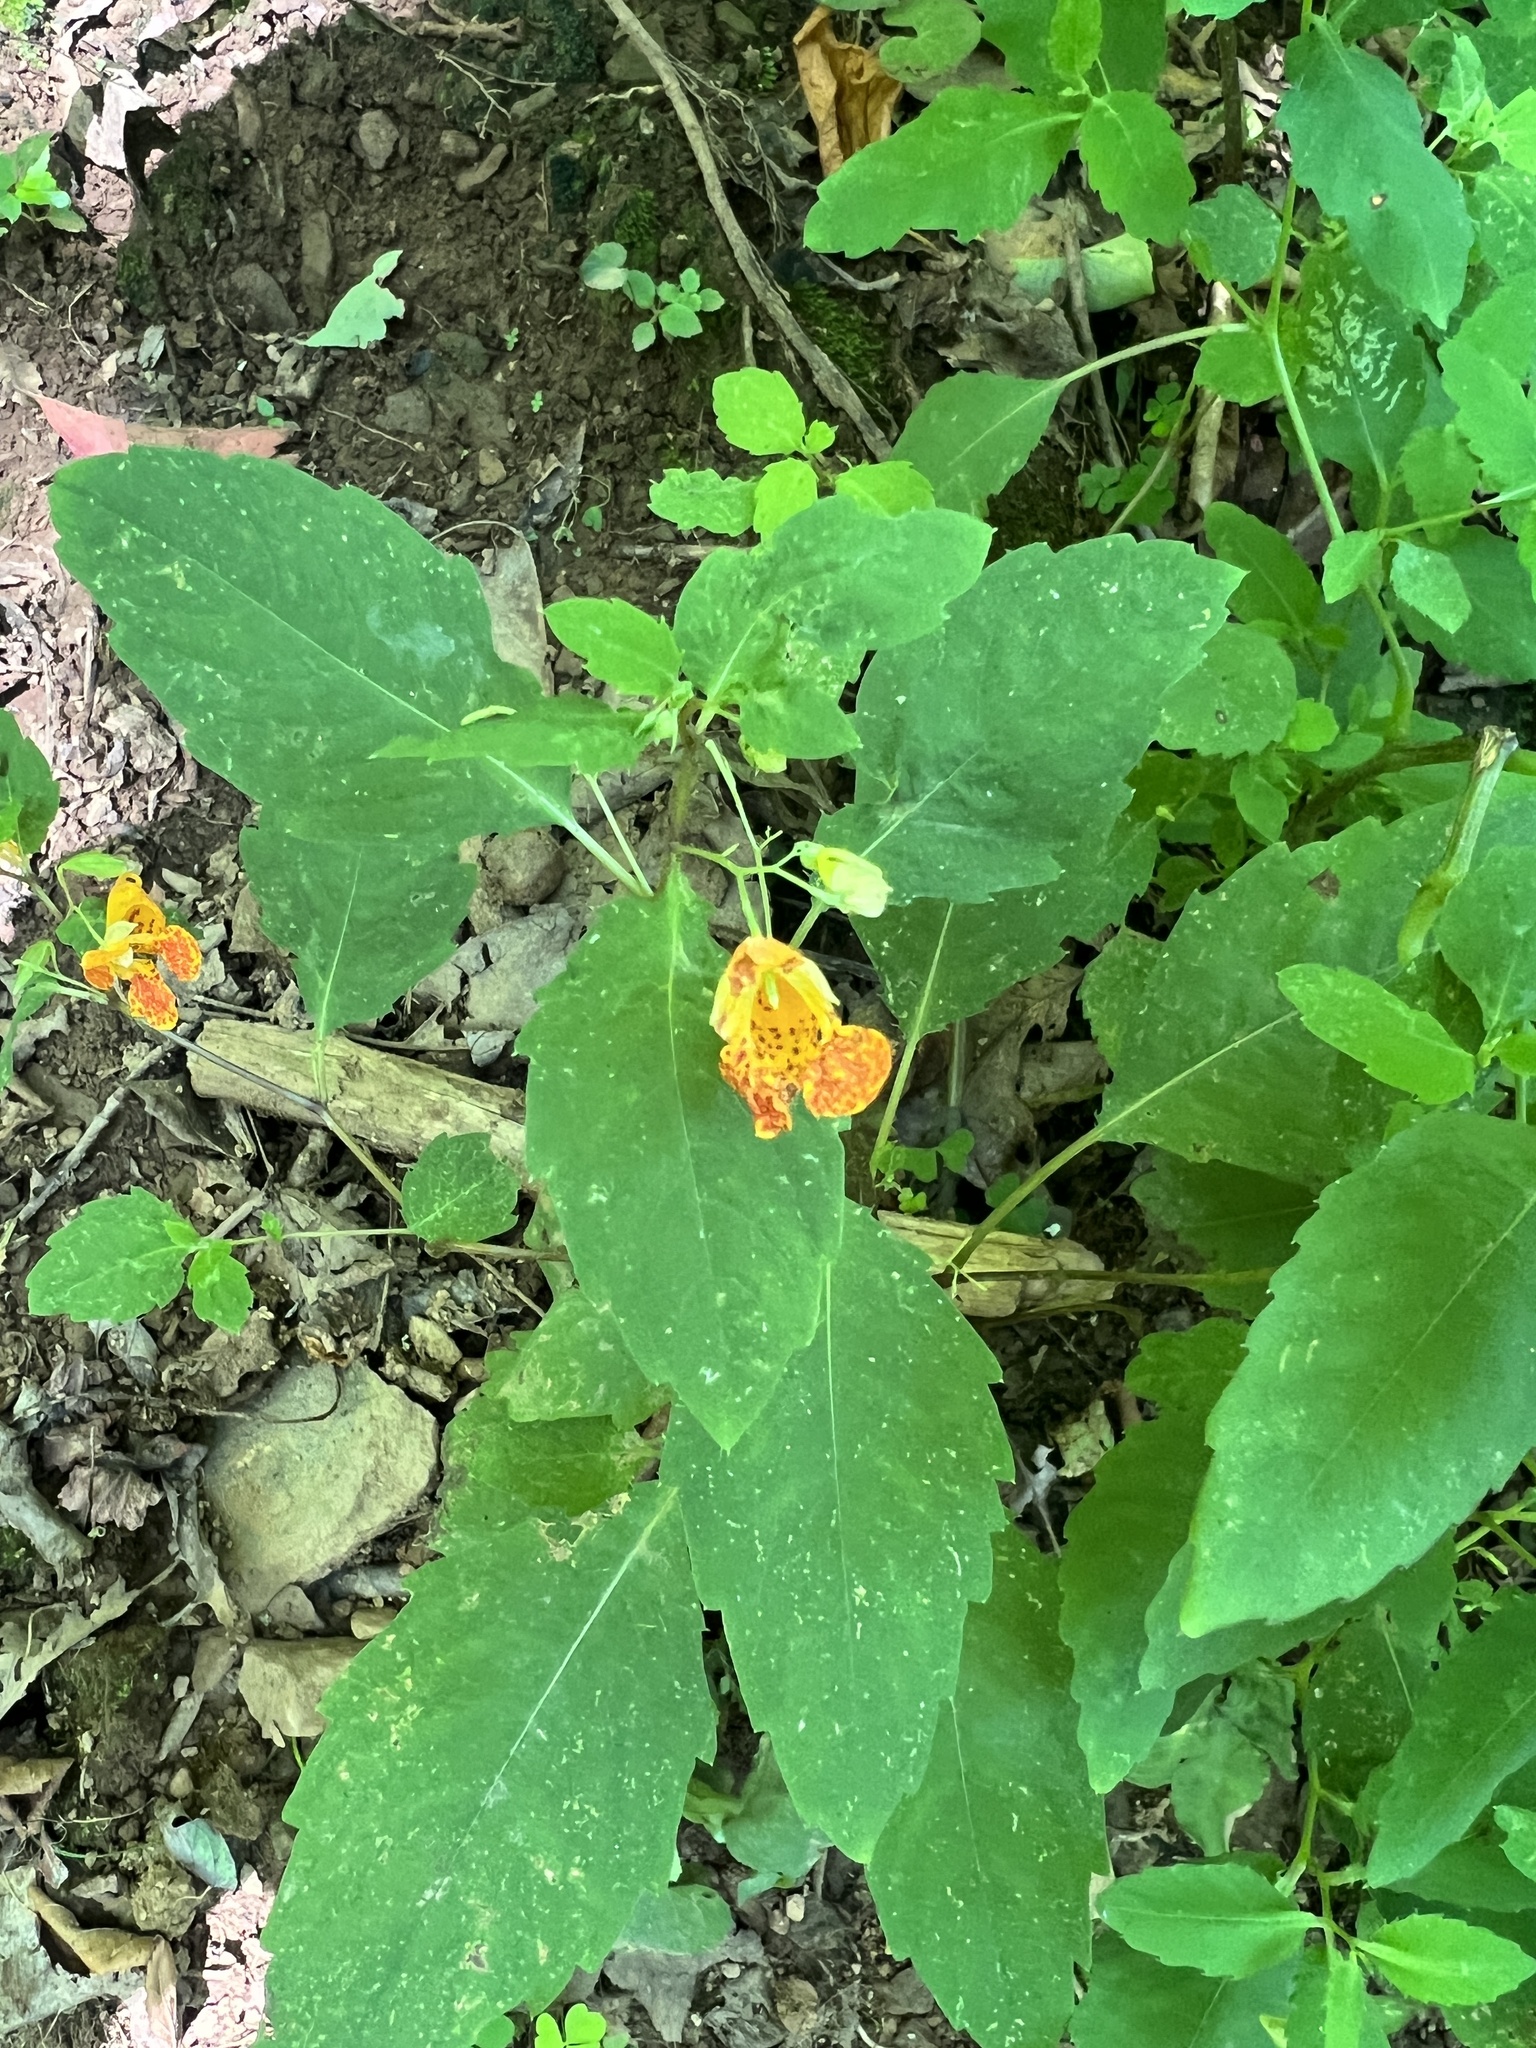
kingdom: Plantae
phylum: Tracheophyta
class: Magnoliopsida
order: Ericales
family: Balsaminaceae
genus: Impatiens
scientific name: Impatiens capensis
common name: Orange balsam
